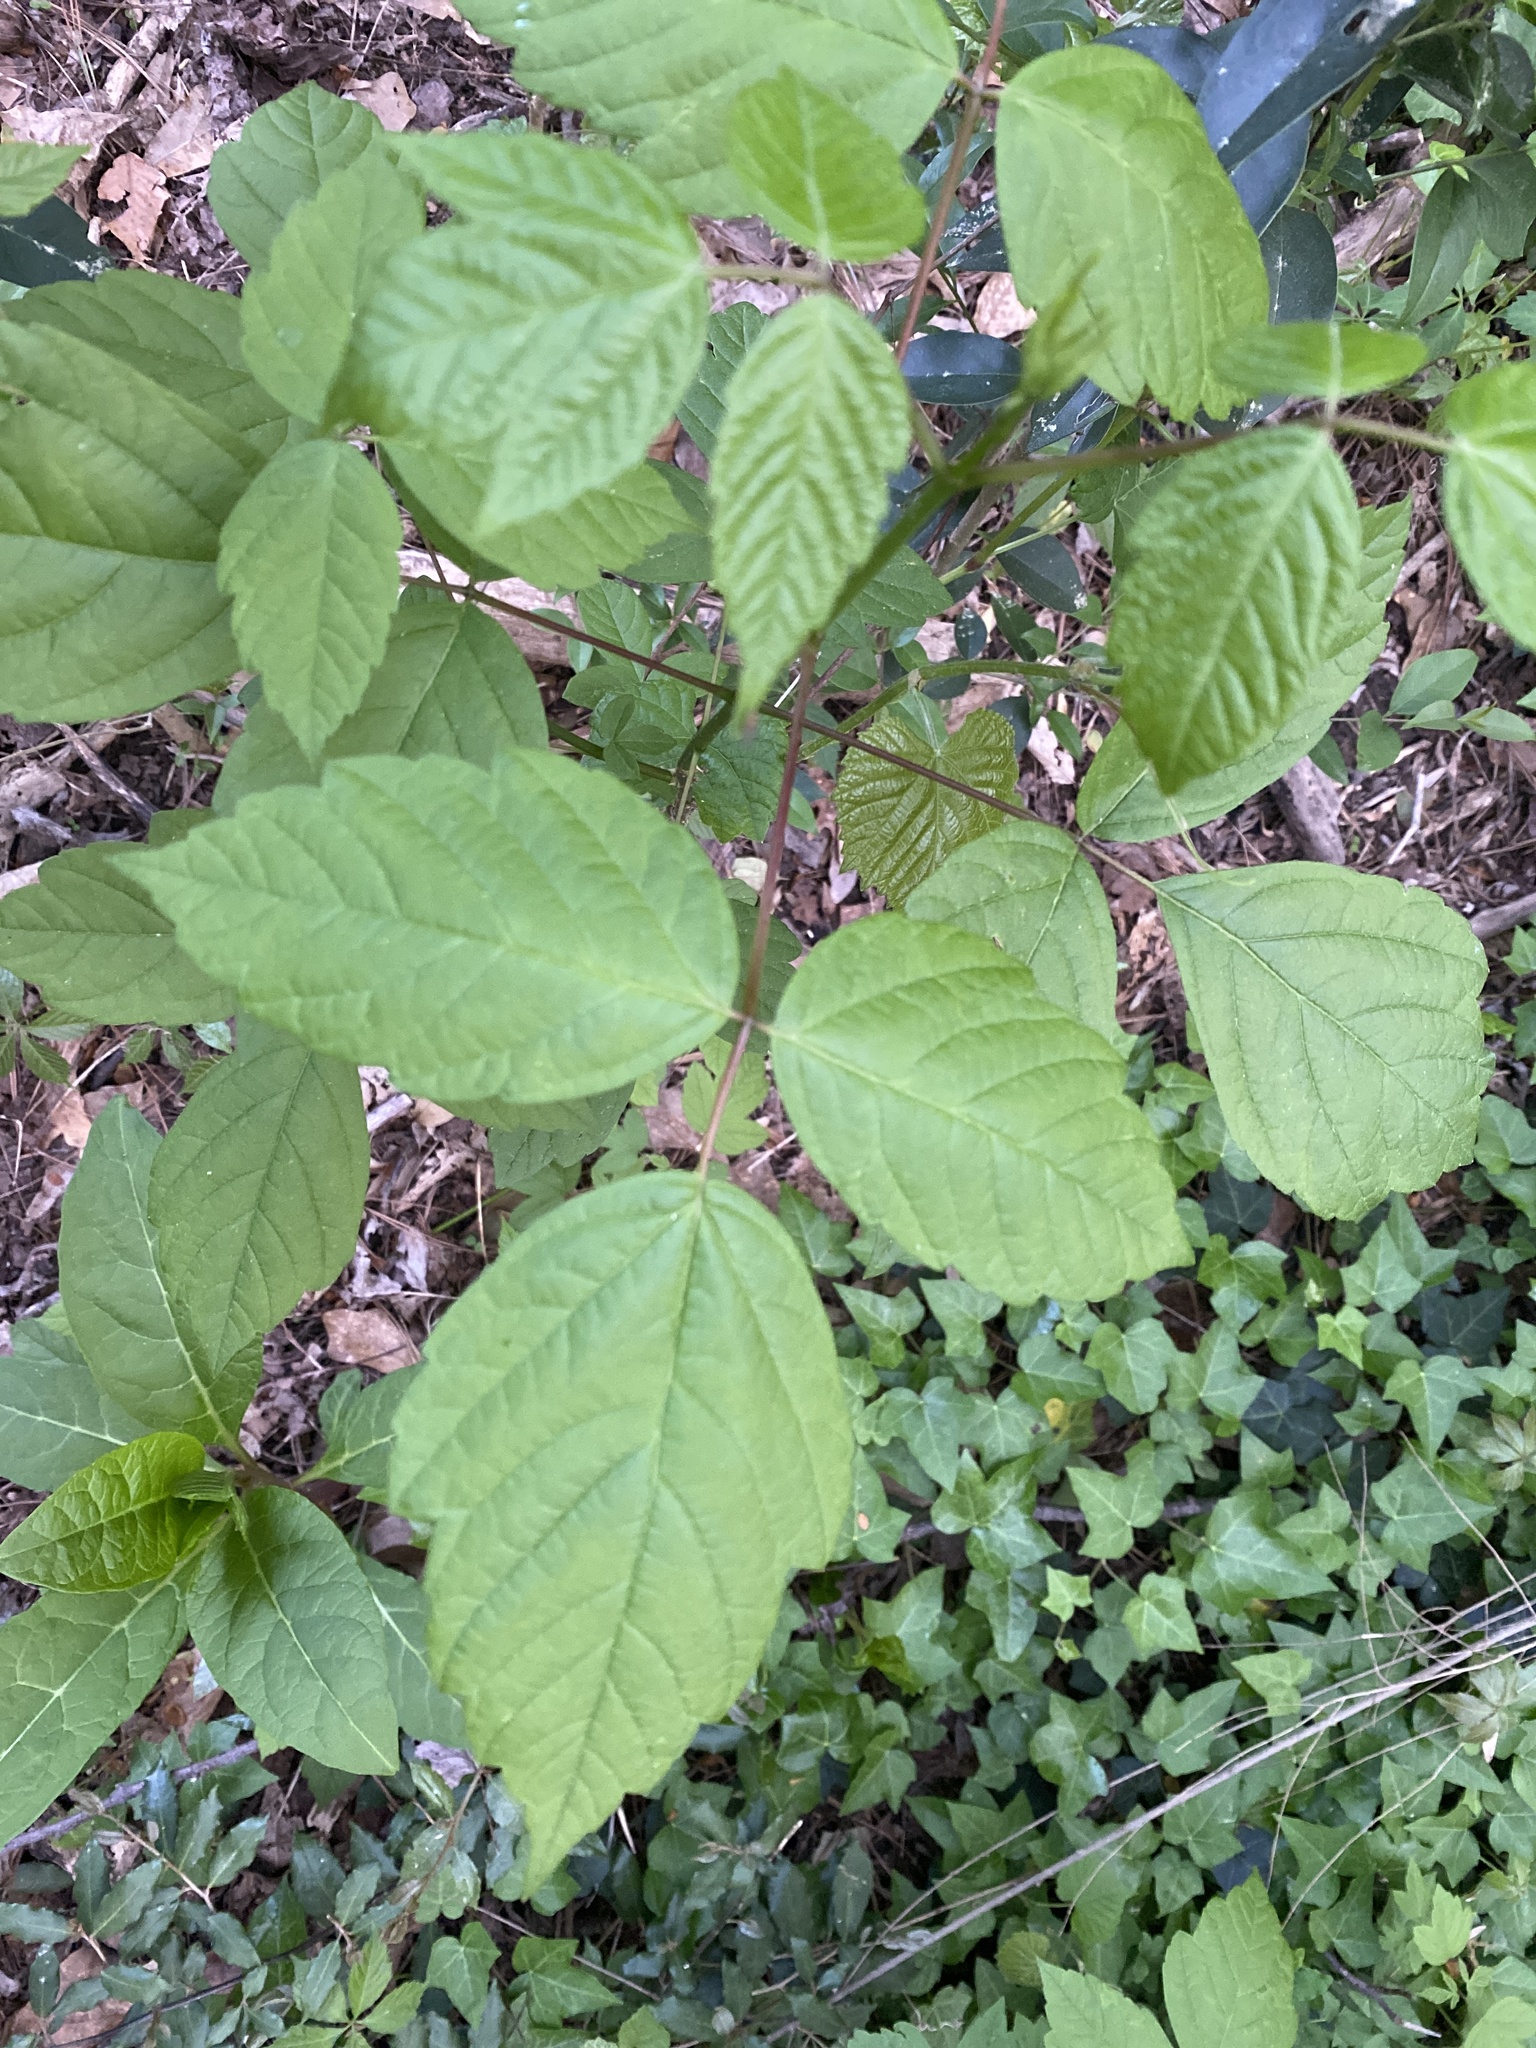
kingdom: Plantae
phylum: Tracheophyta
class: Magnoliopsida
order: Sapindales
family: Sapindaceae
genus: Acer
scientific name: Acer negundo
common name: Ashleaf maple
